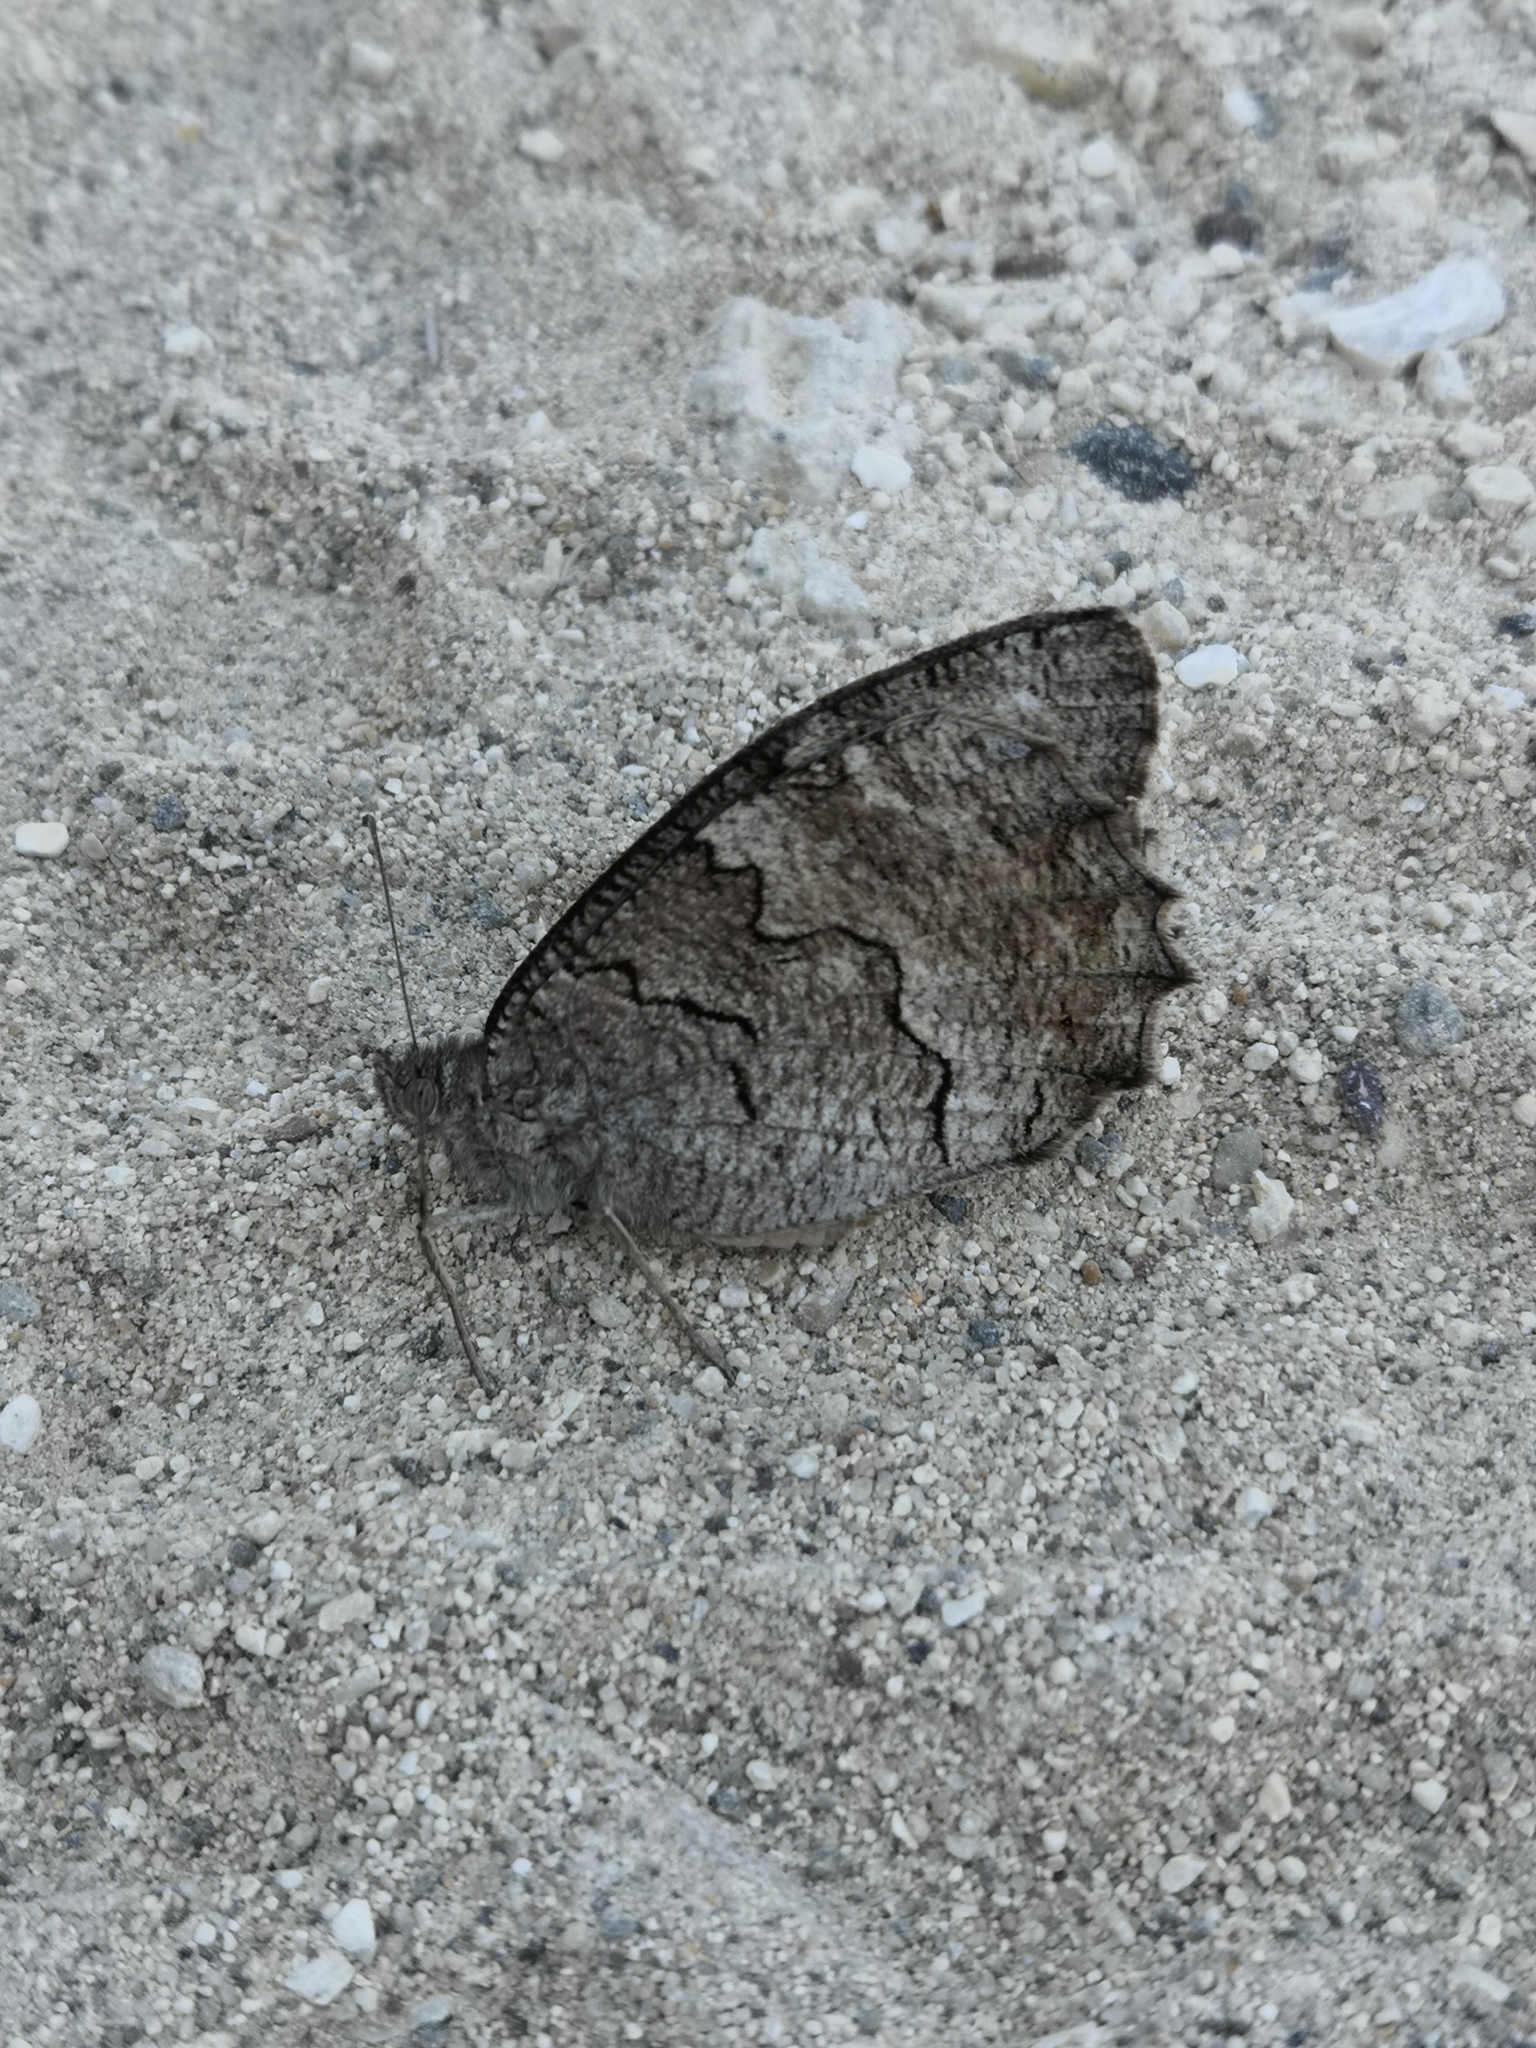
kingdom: Animalia
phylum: Arthropoda
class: Insecta
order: Lepidoptera
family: Nymphalidae
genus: Hipparchia
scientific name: Hipparchia fatua
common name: Freyer's grayling
